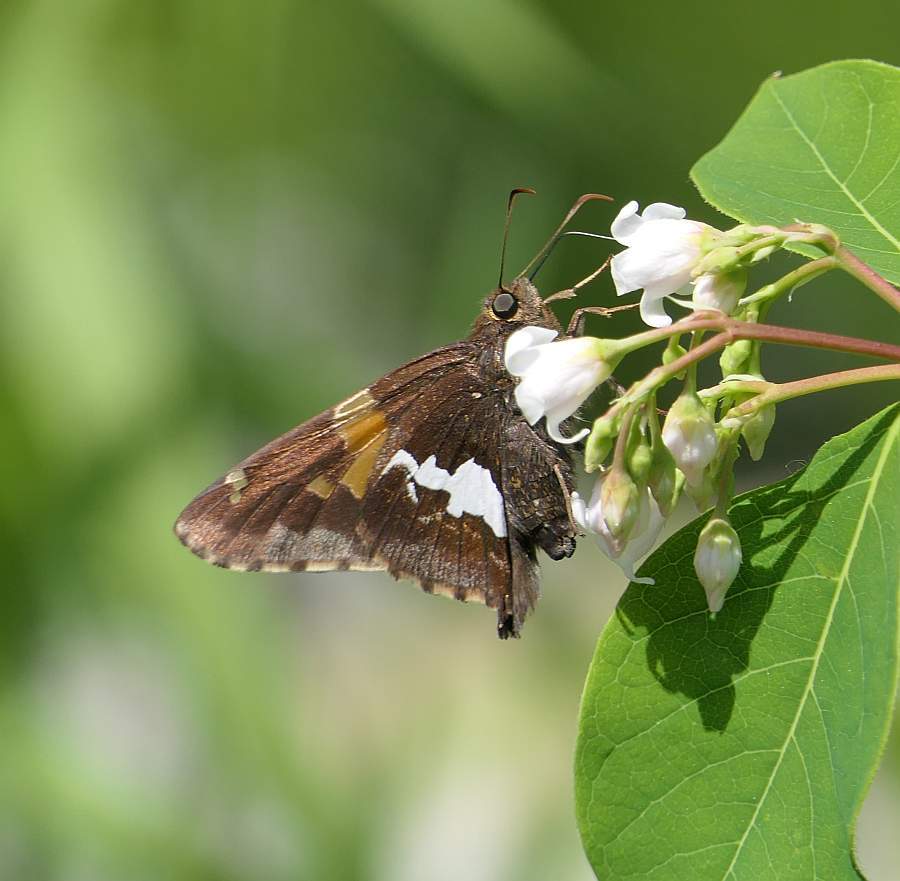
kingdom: Animalia
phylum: Arthropoda
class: Insecta
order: Lepidoptera
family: Hesperiidae
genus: Epargyreus
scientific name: Epargyreus clarus
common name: Silver-spotted skipper
